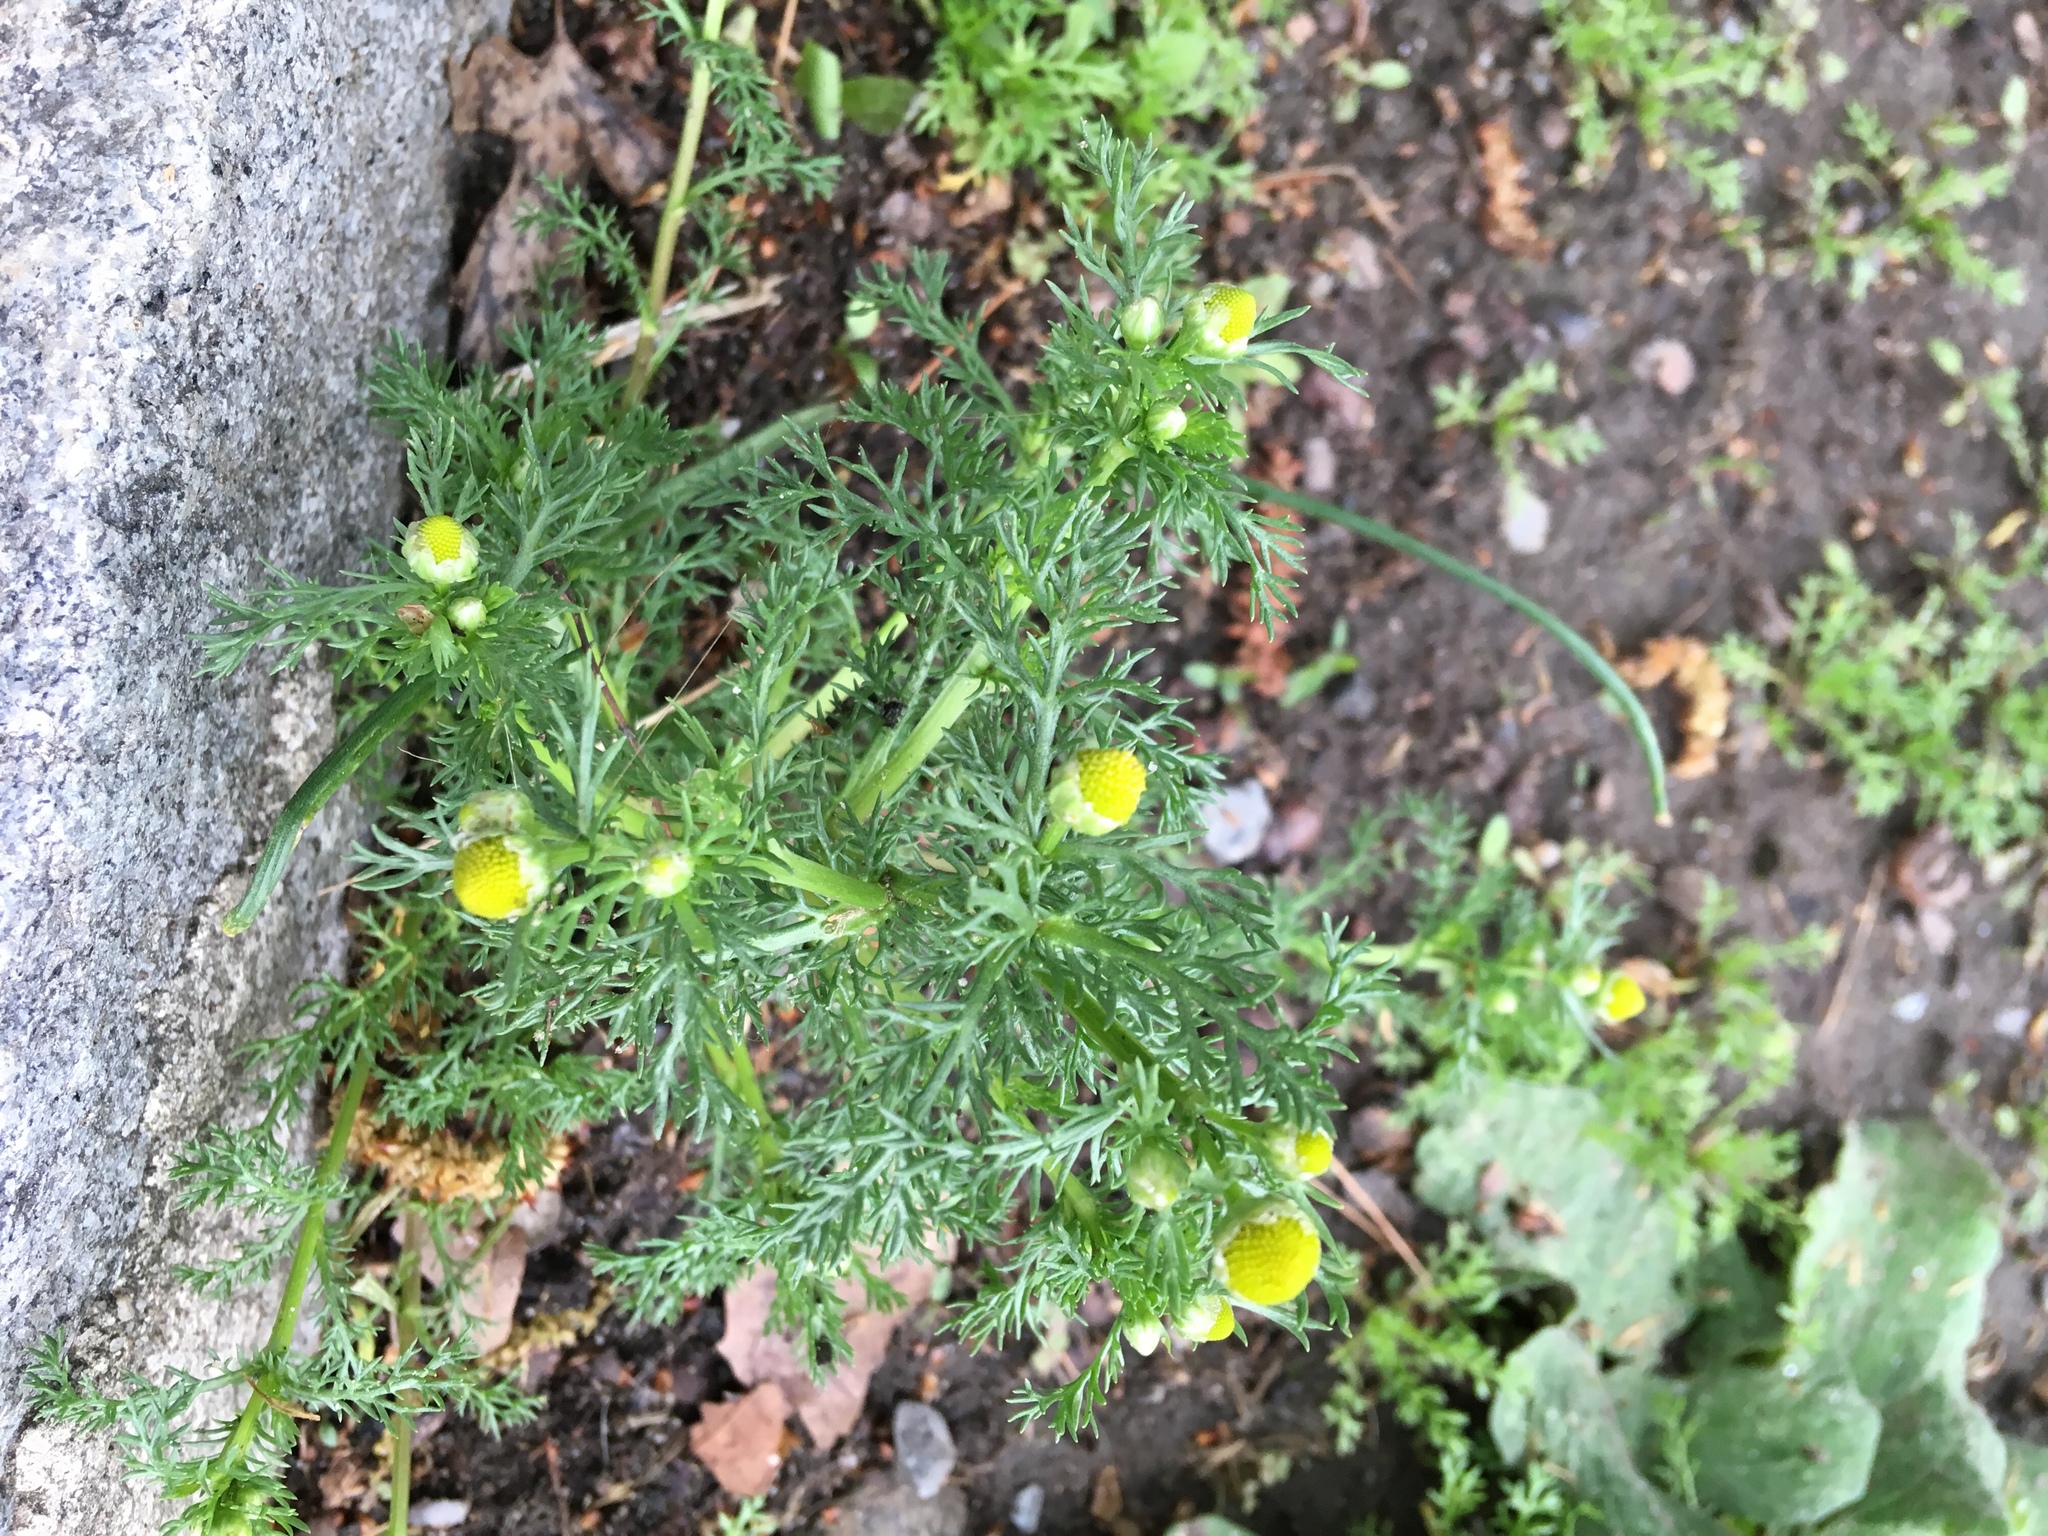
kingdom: Plantae
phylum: Tracheophyta
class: Magnoliopsida
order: Asterales
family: Asteraceae
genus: Matricaria
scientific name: Matricaria discoidea
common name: Disc mayweed
